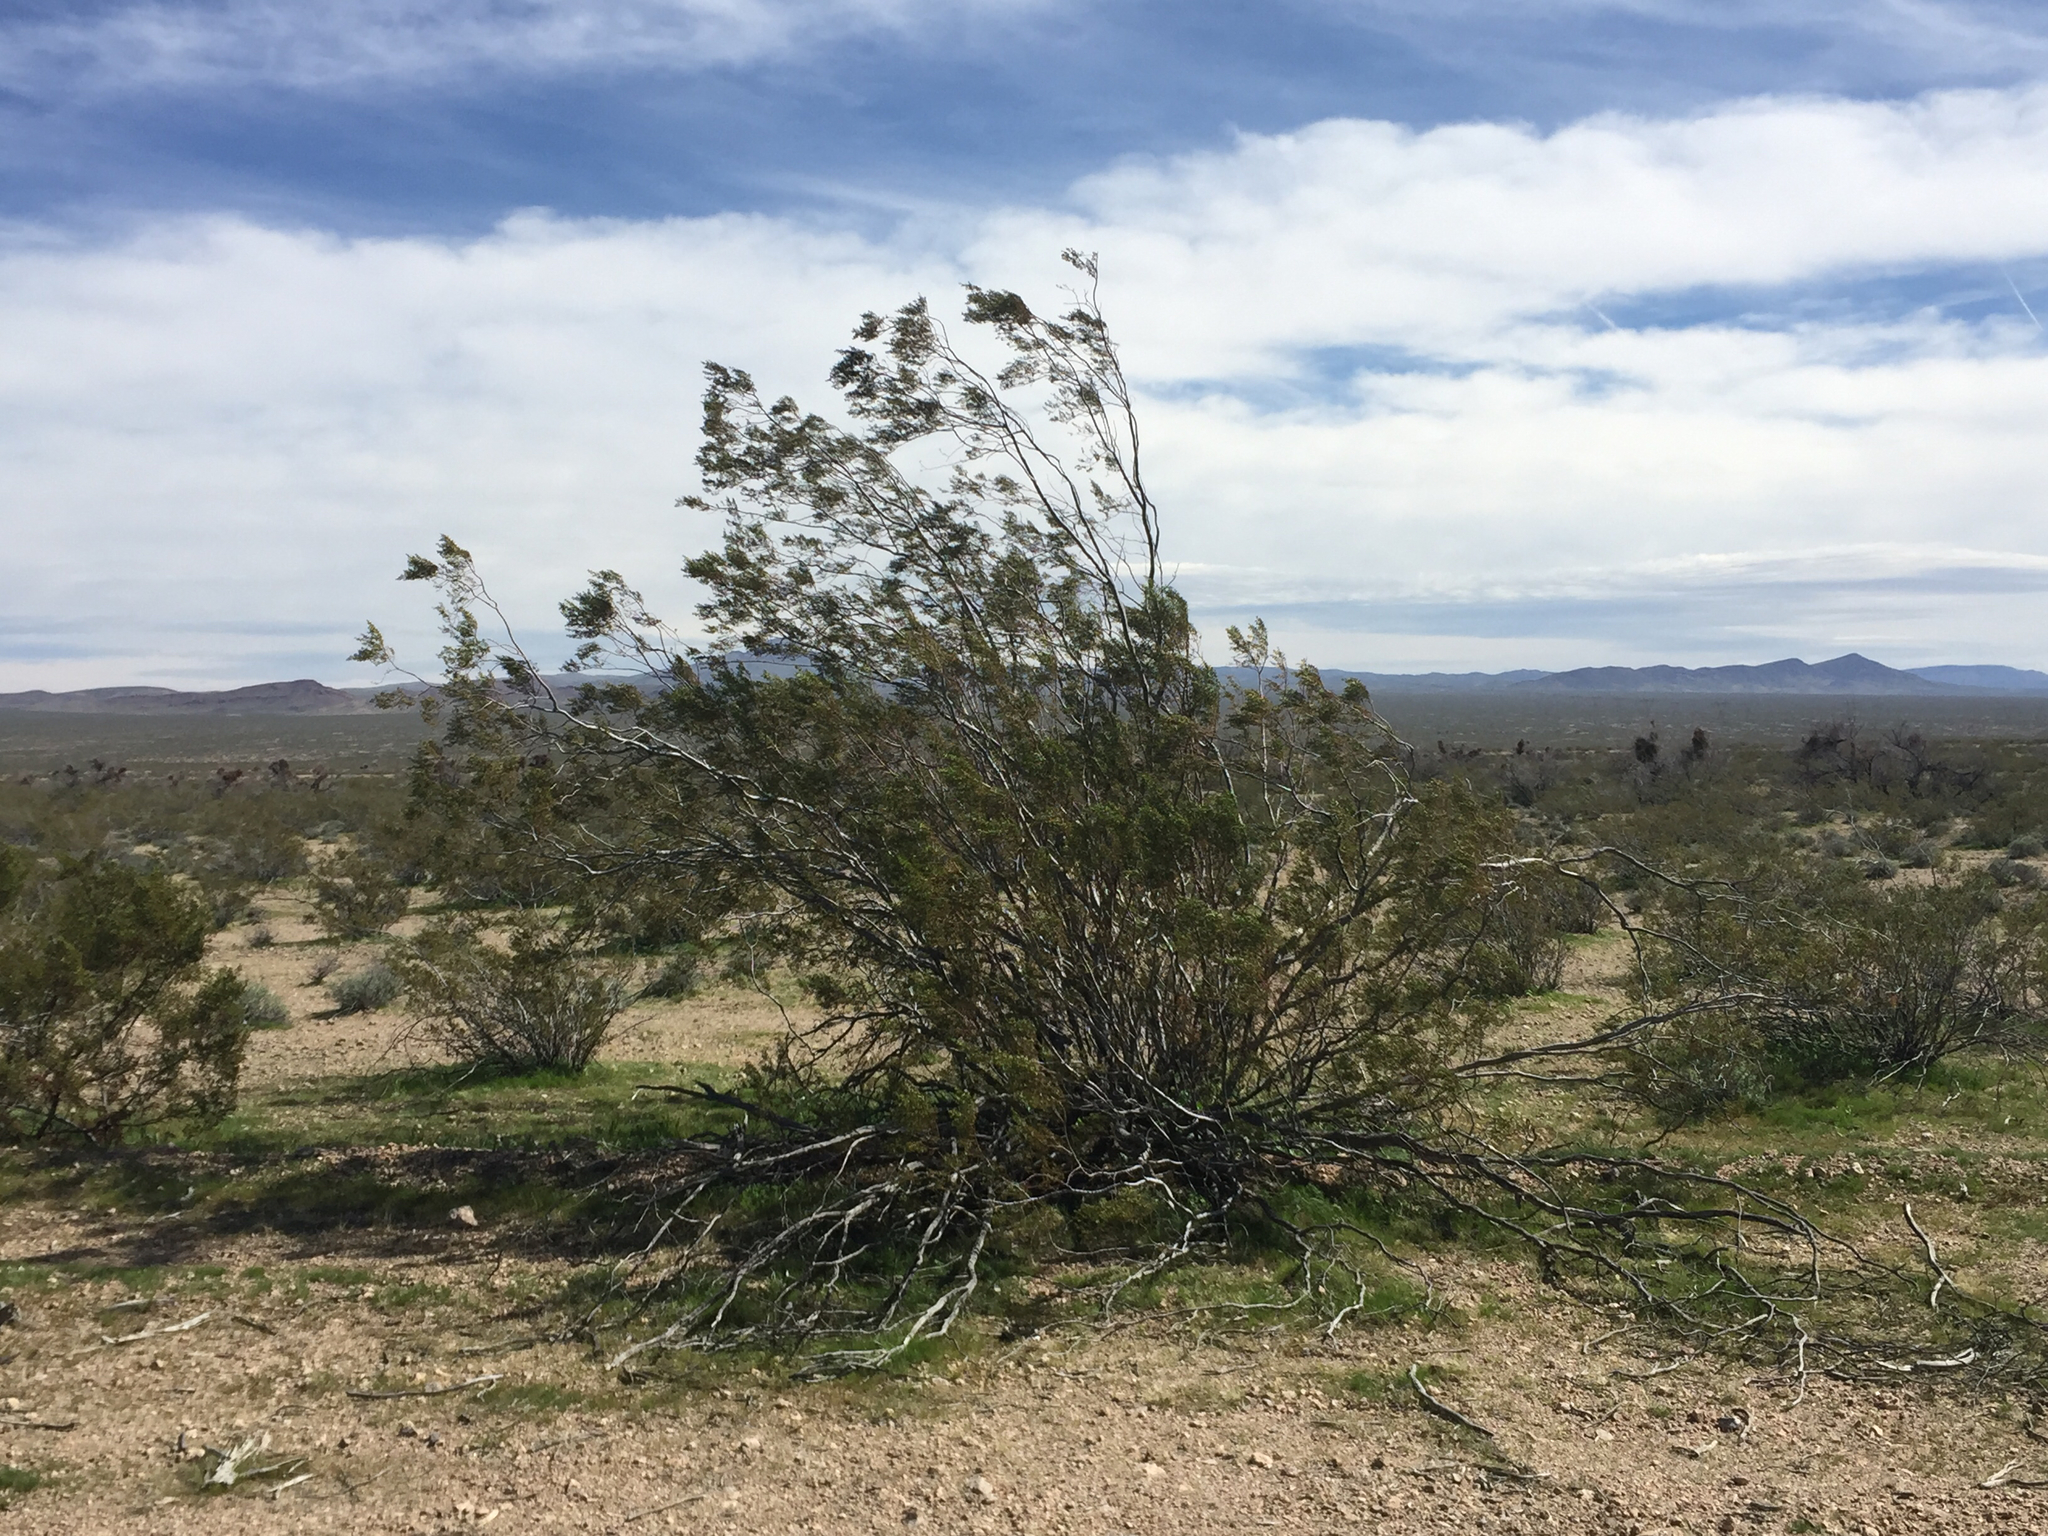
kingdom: Plantae
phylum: Tracheophyta
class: Magnoliopsida
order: Zygophyllales
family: Zygophyllaceae
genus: Larrea
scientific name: Larrea tridentata
